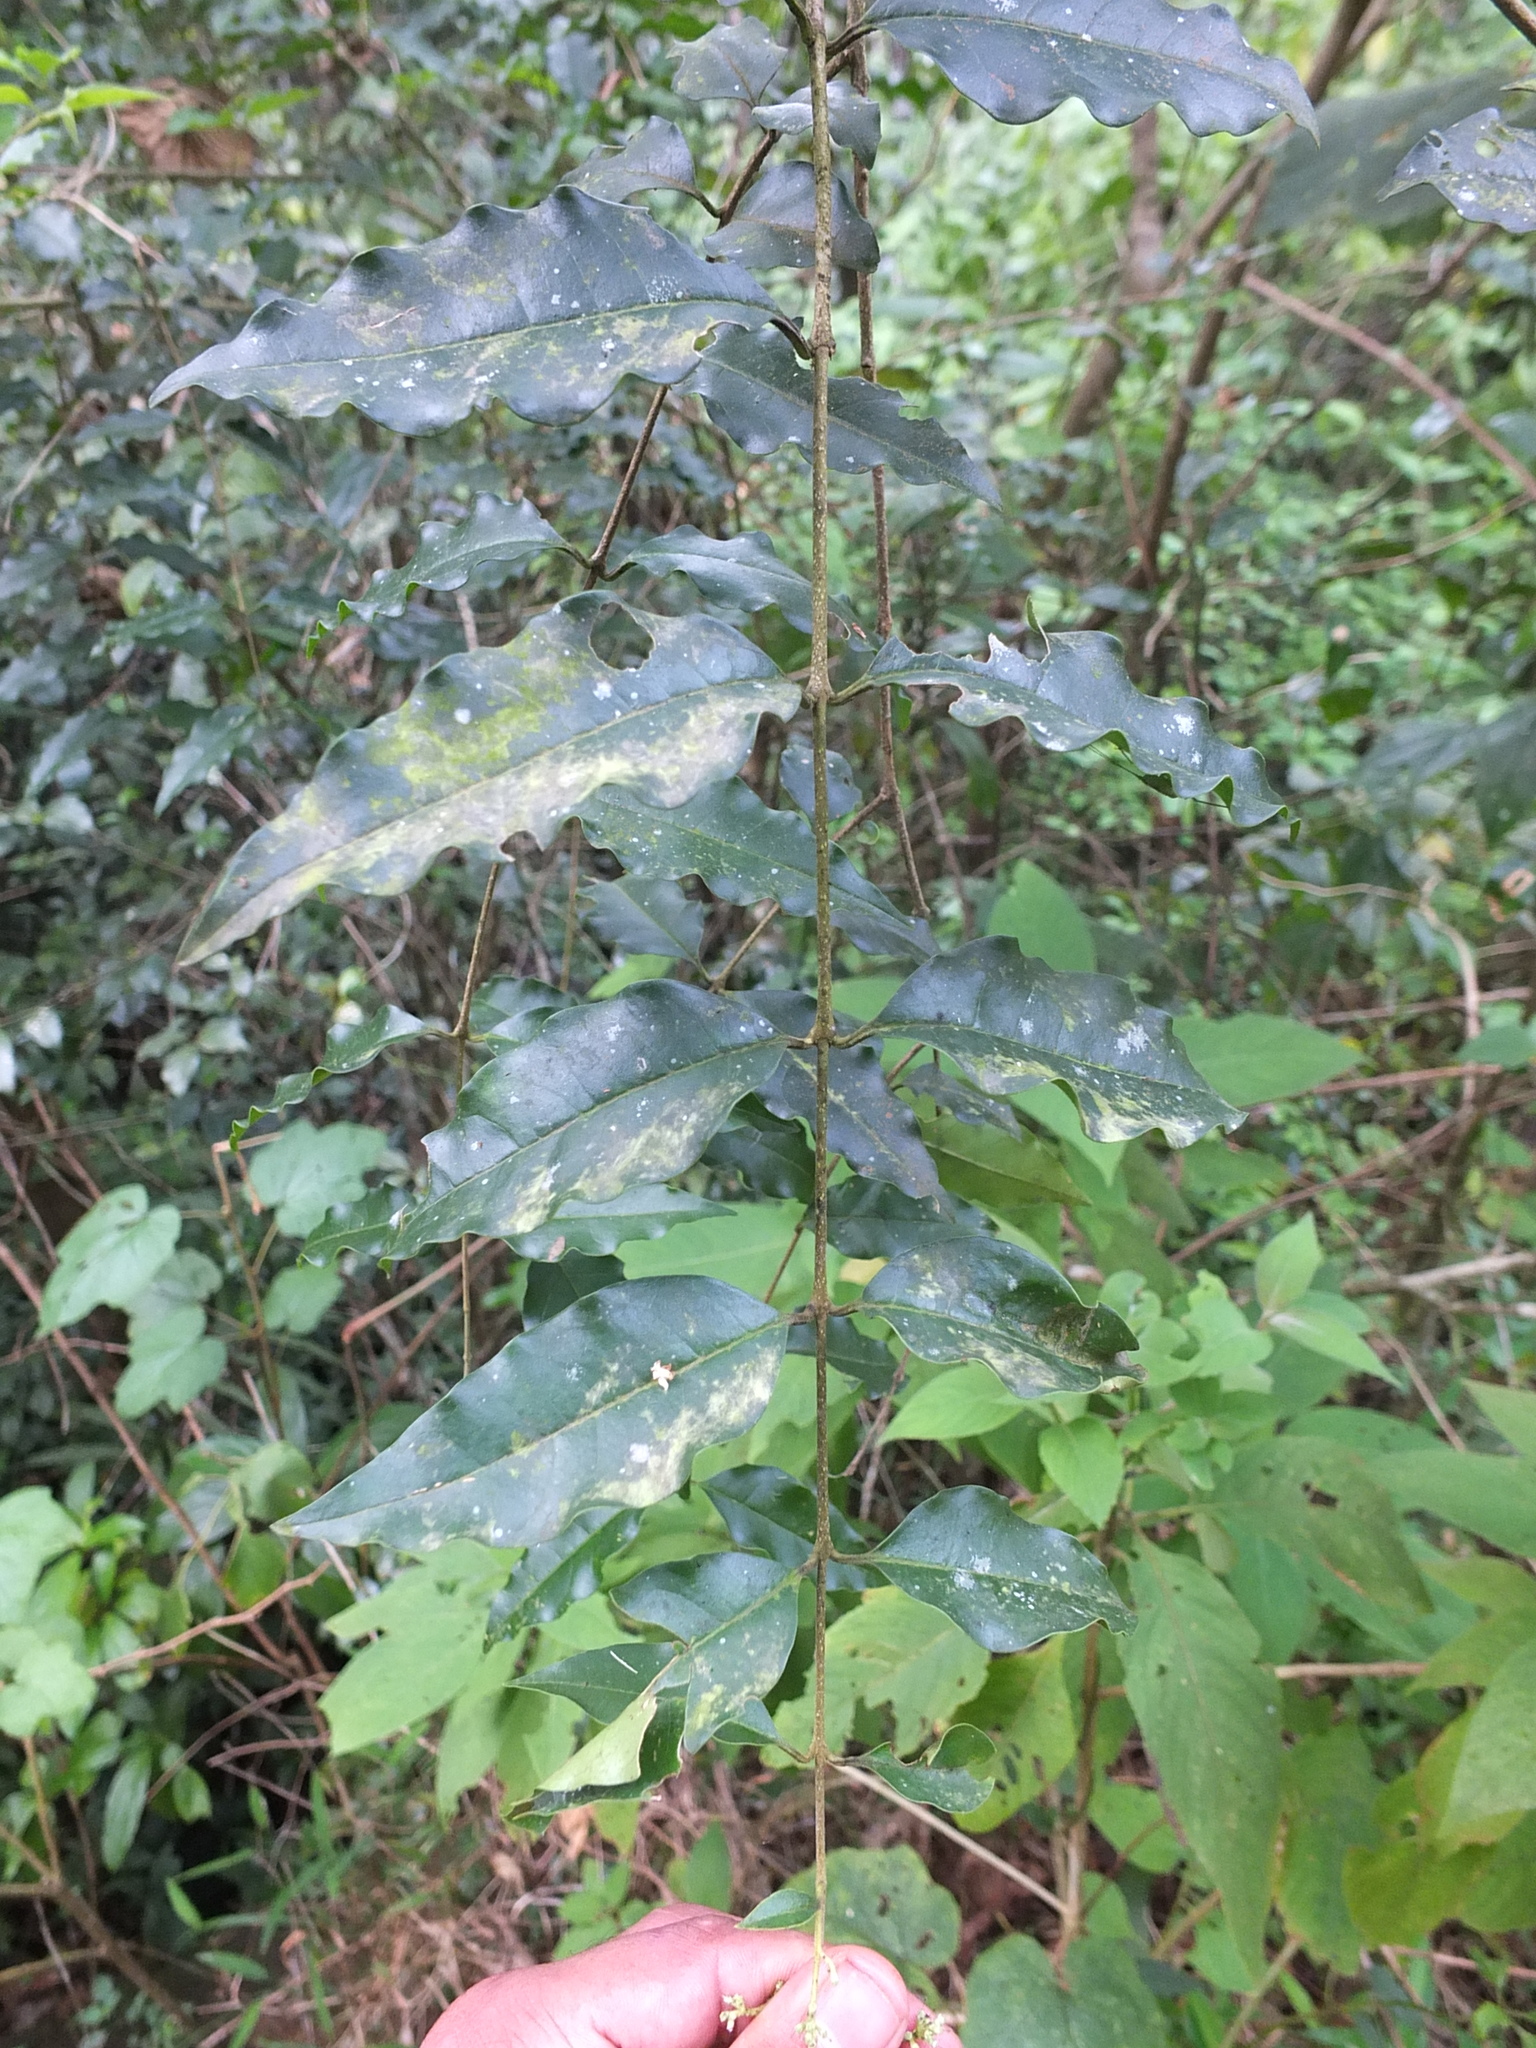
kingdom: Plantae
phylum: Tracheophyta
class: Magnoliopsida
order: Lamiales
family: Oleaceae
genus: Ligustrum
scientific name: Ligustrum robustum
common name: Tree privet
